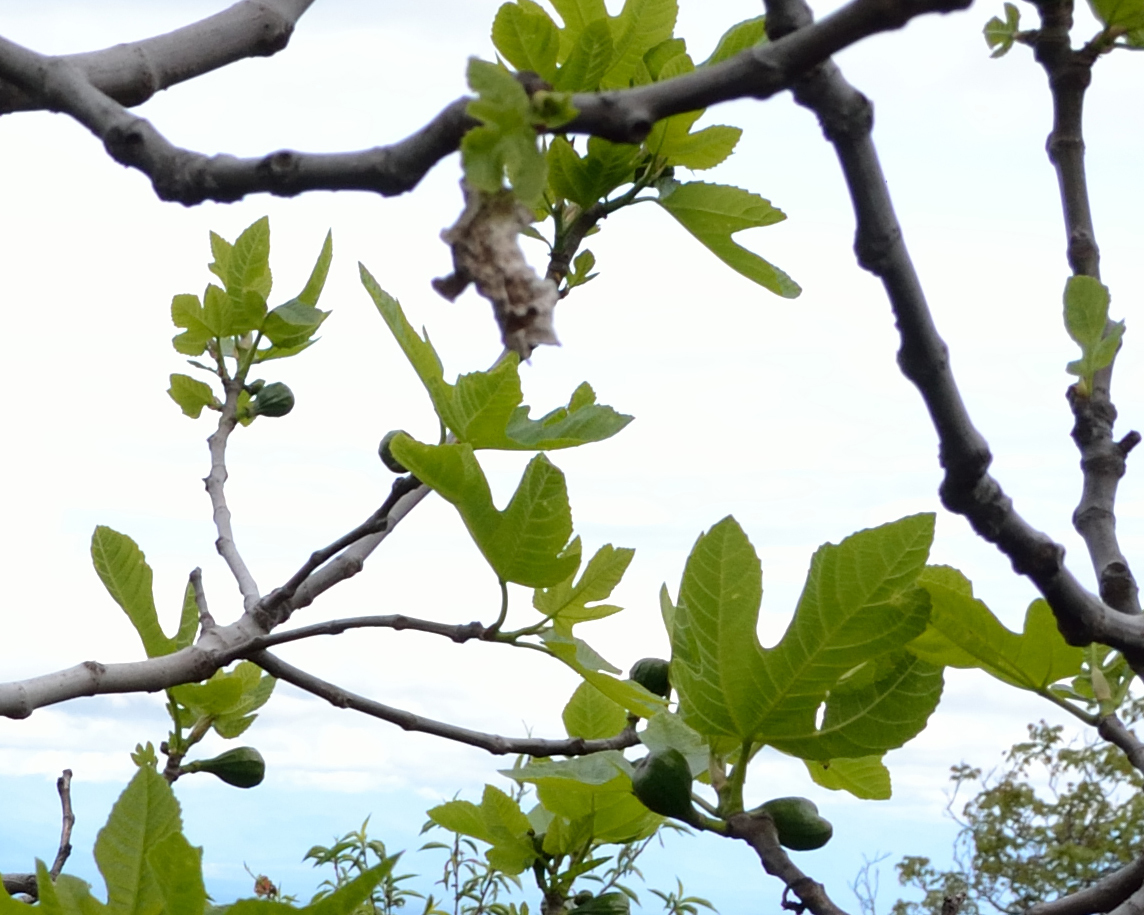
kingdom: Plantae
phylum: Tracheophyta
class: Magnoliopsida
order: Rosales
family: Moraceae
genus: Ficus
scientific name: Ficus carica
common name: Fig
